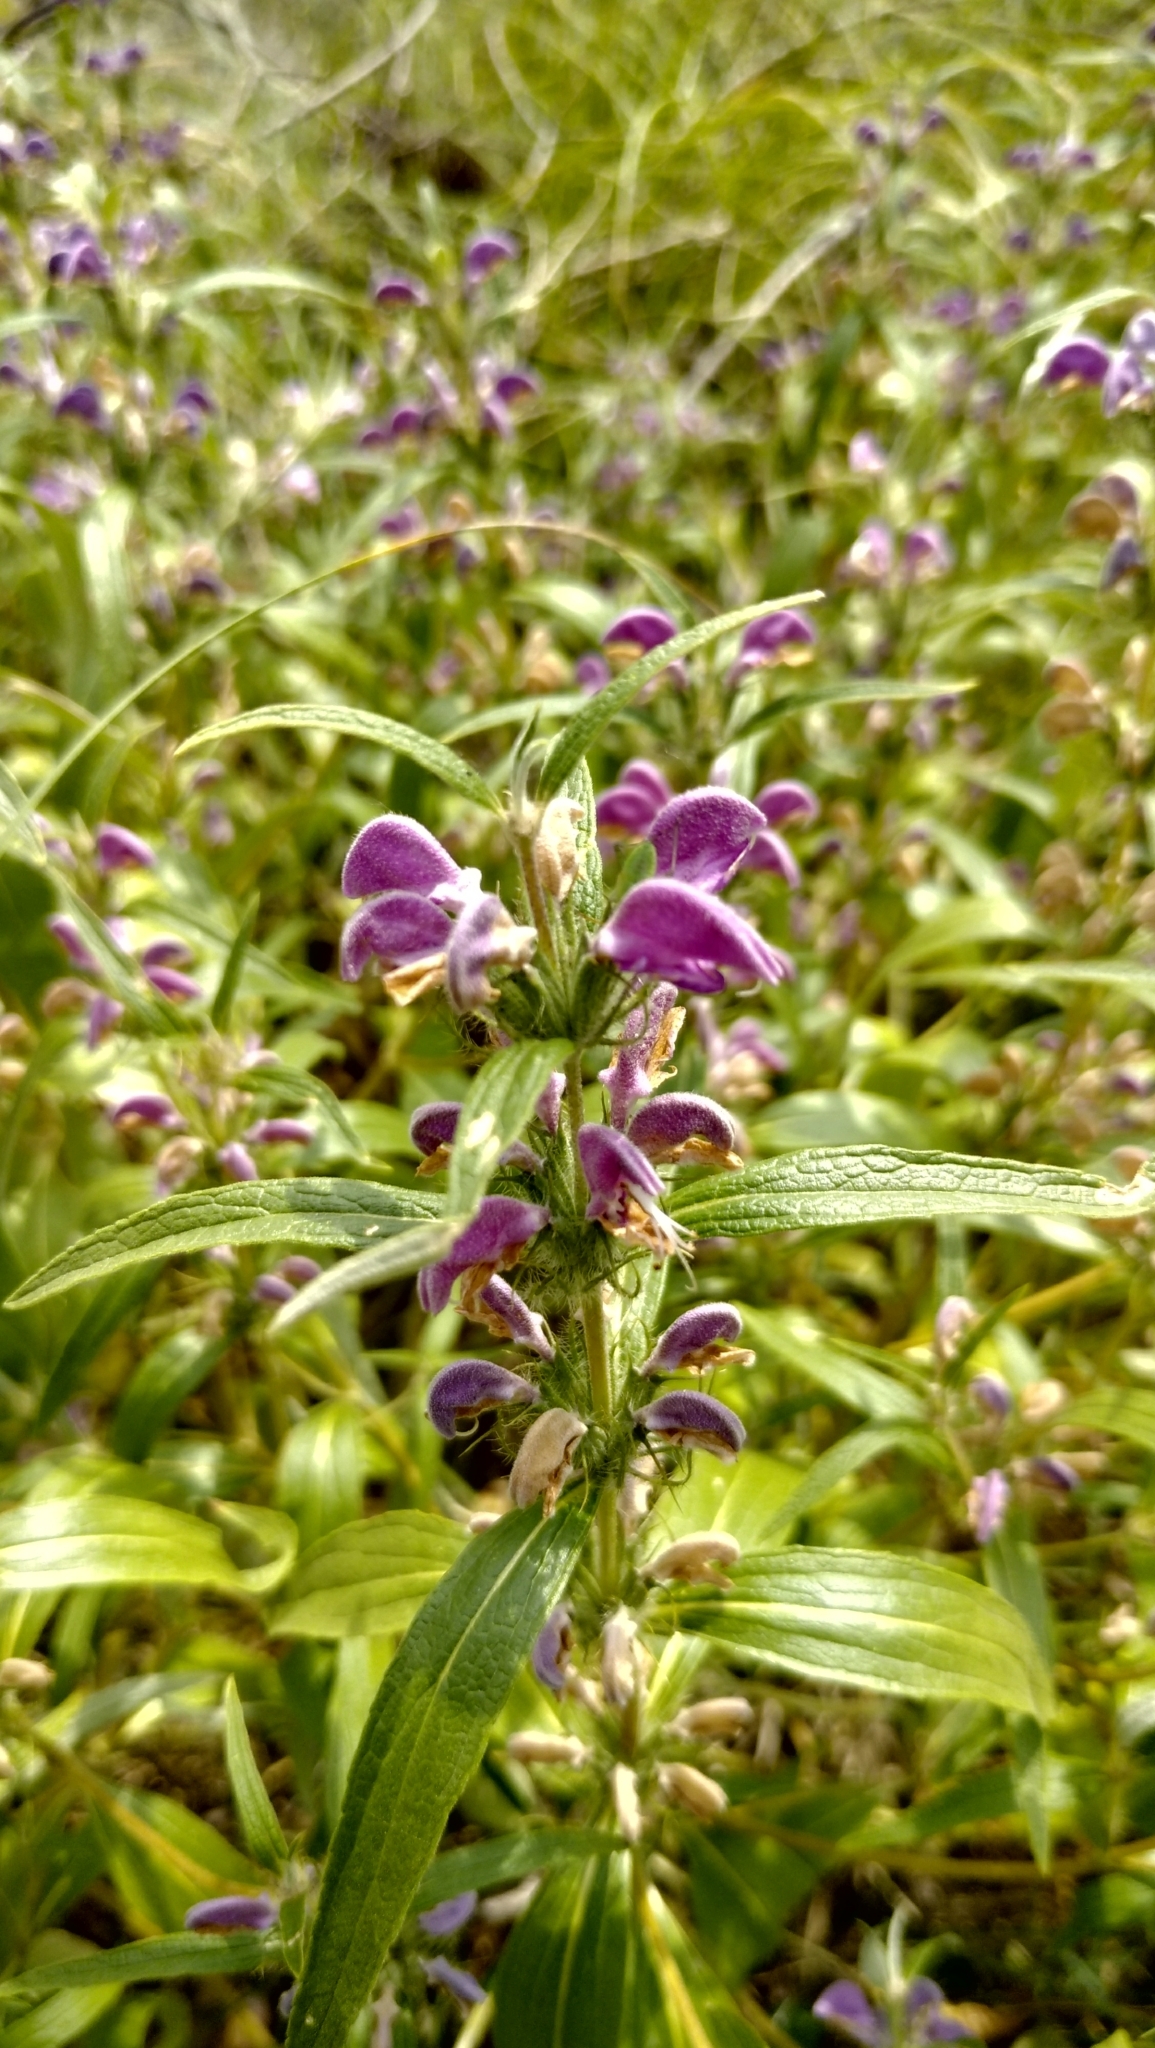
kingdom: Plantae
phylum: Tracheophyta
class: Magnoliopsida
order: Lamiales
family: Lamiaceae
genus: Phlomis
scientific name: Phlomis herba-venti
